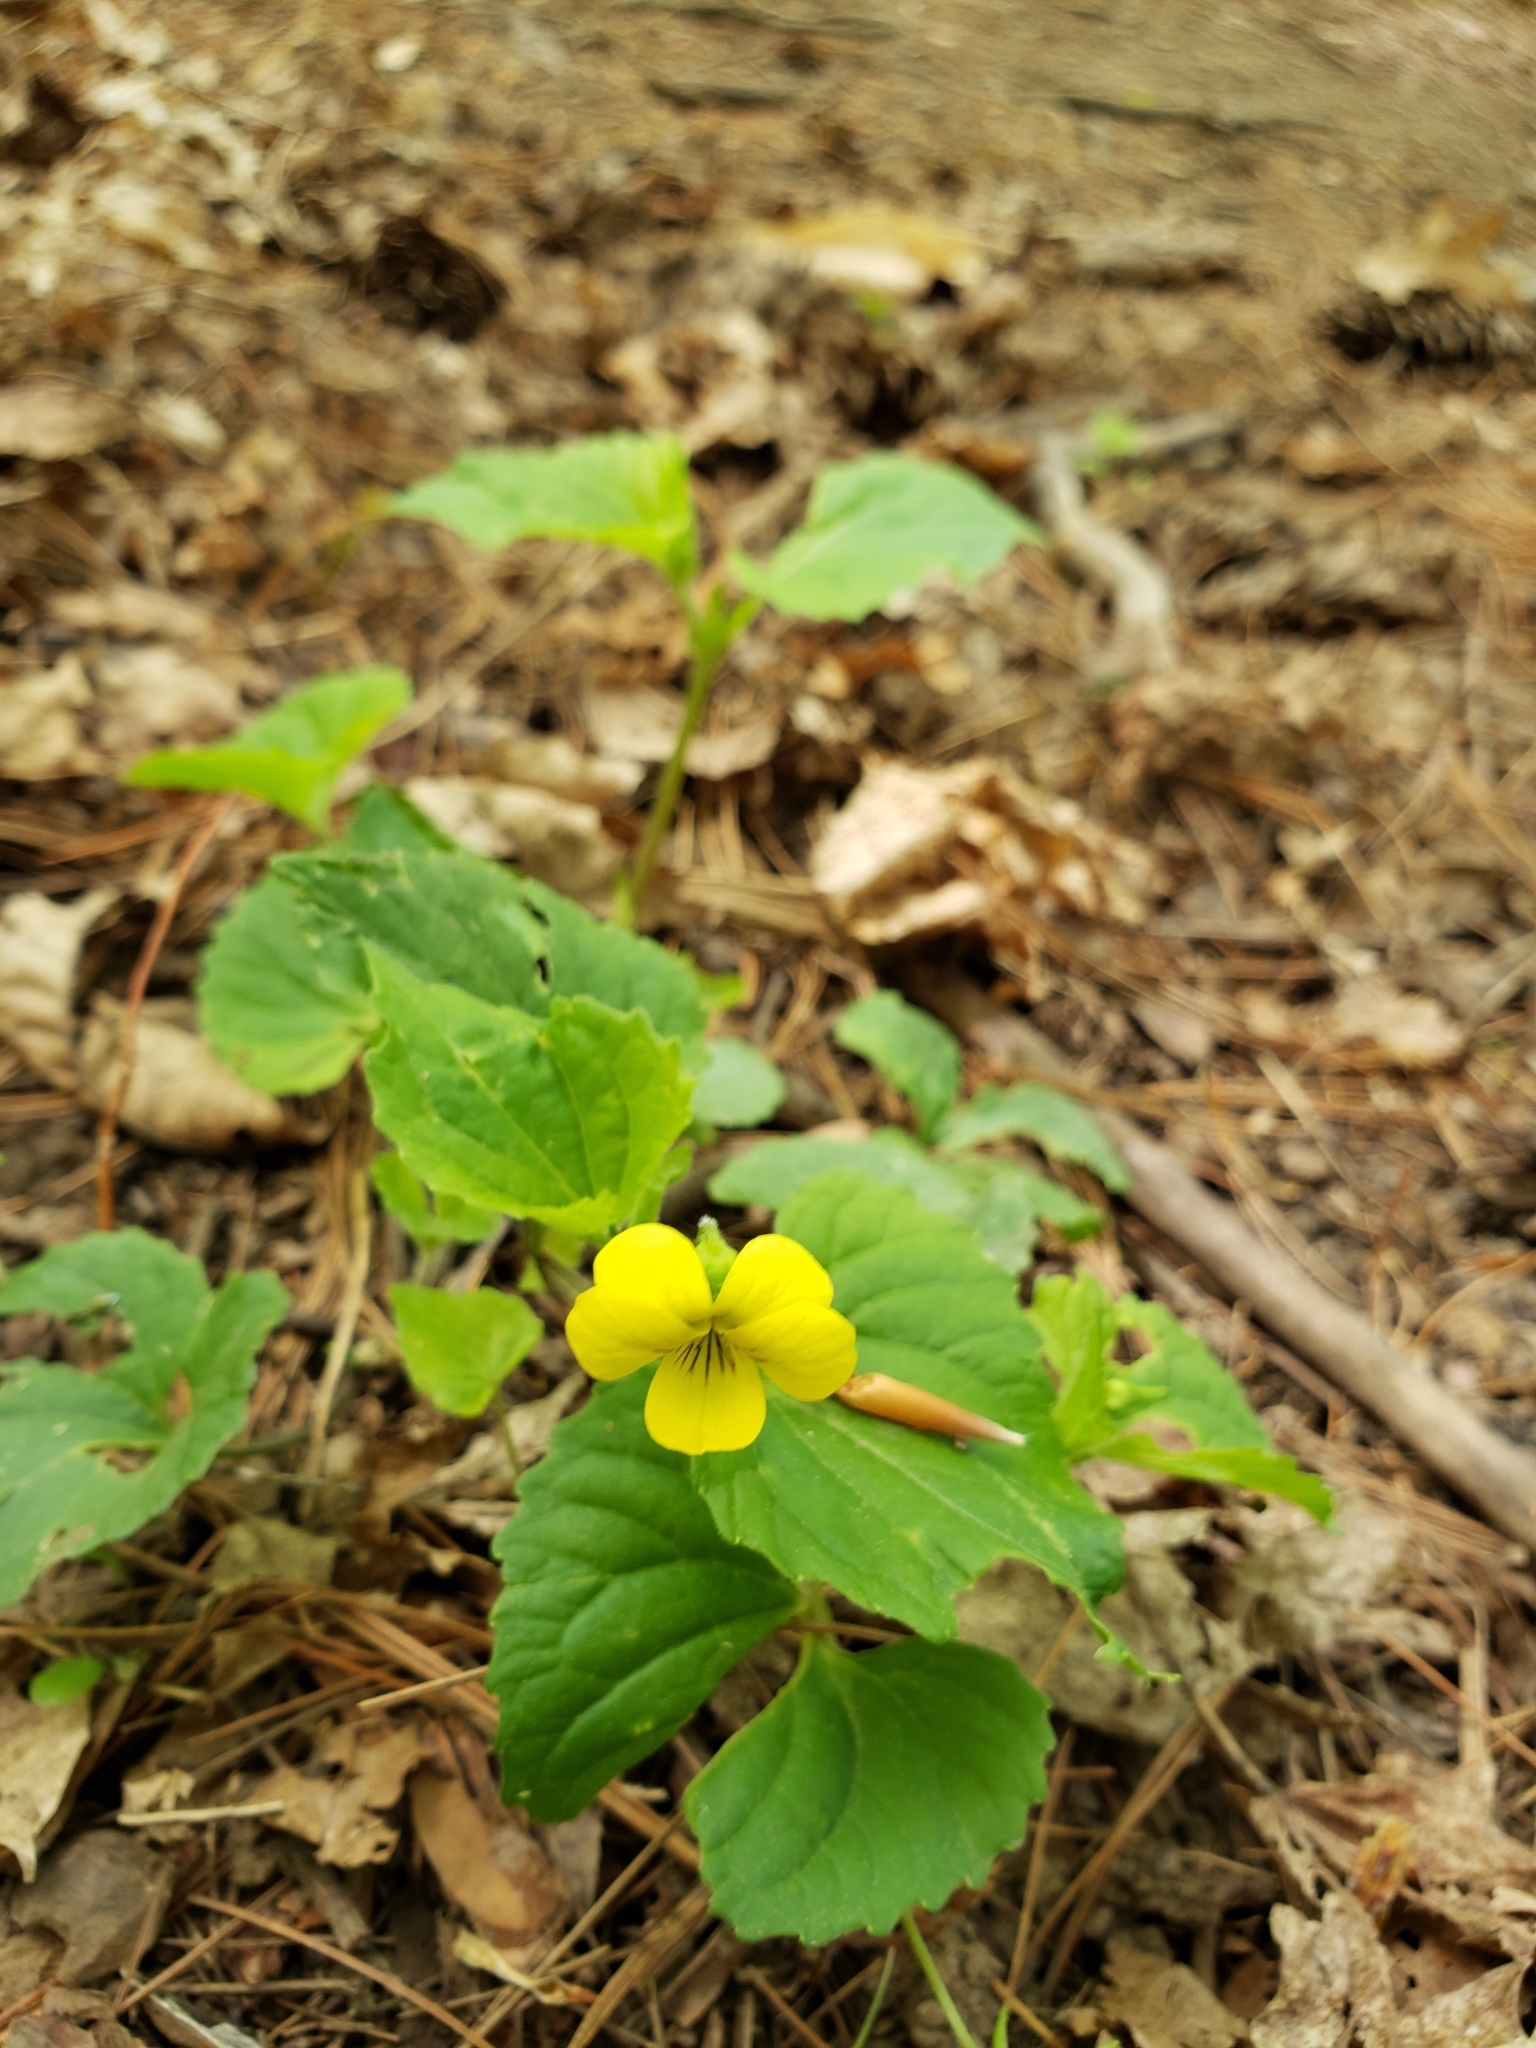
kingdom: Plantae
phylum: Tracheophyta
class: Magnoliopsida
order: Malpighiales
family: Violaceae
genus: Viola
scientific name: Viola eriocarpa
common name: Smooth yellow violet
